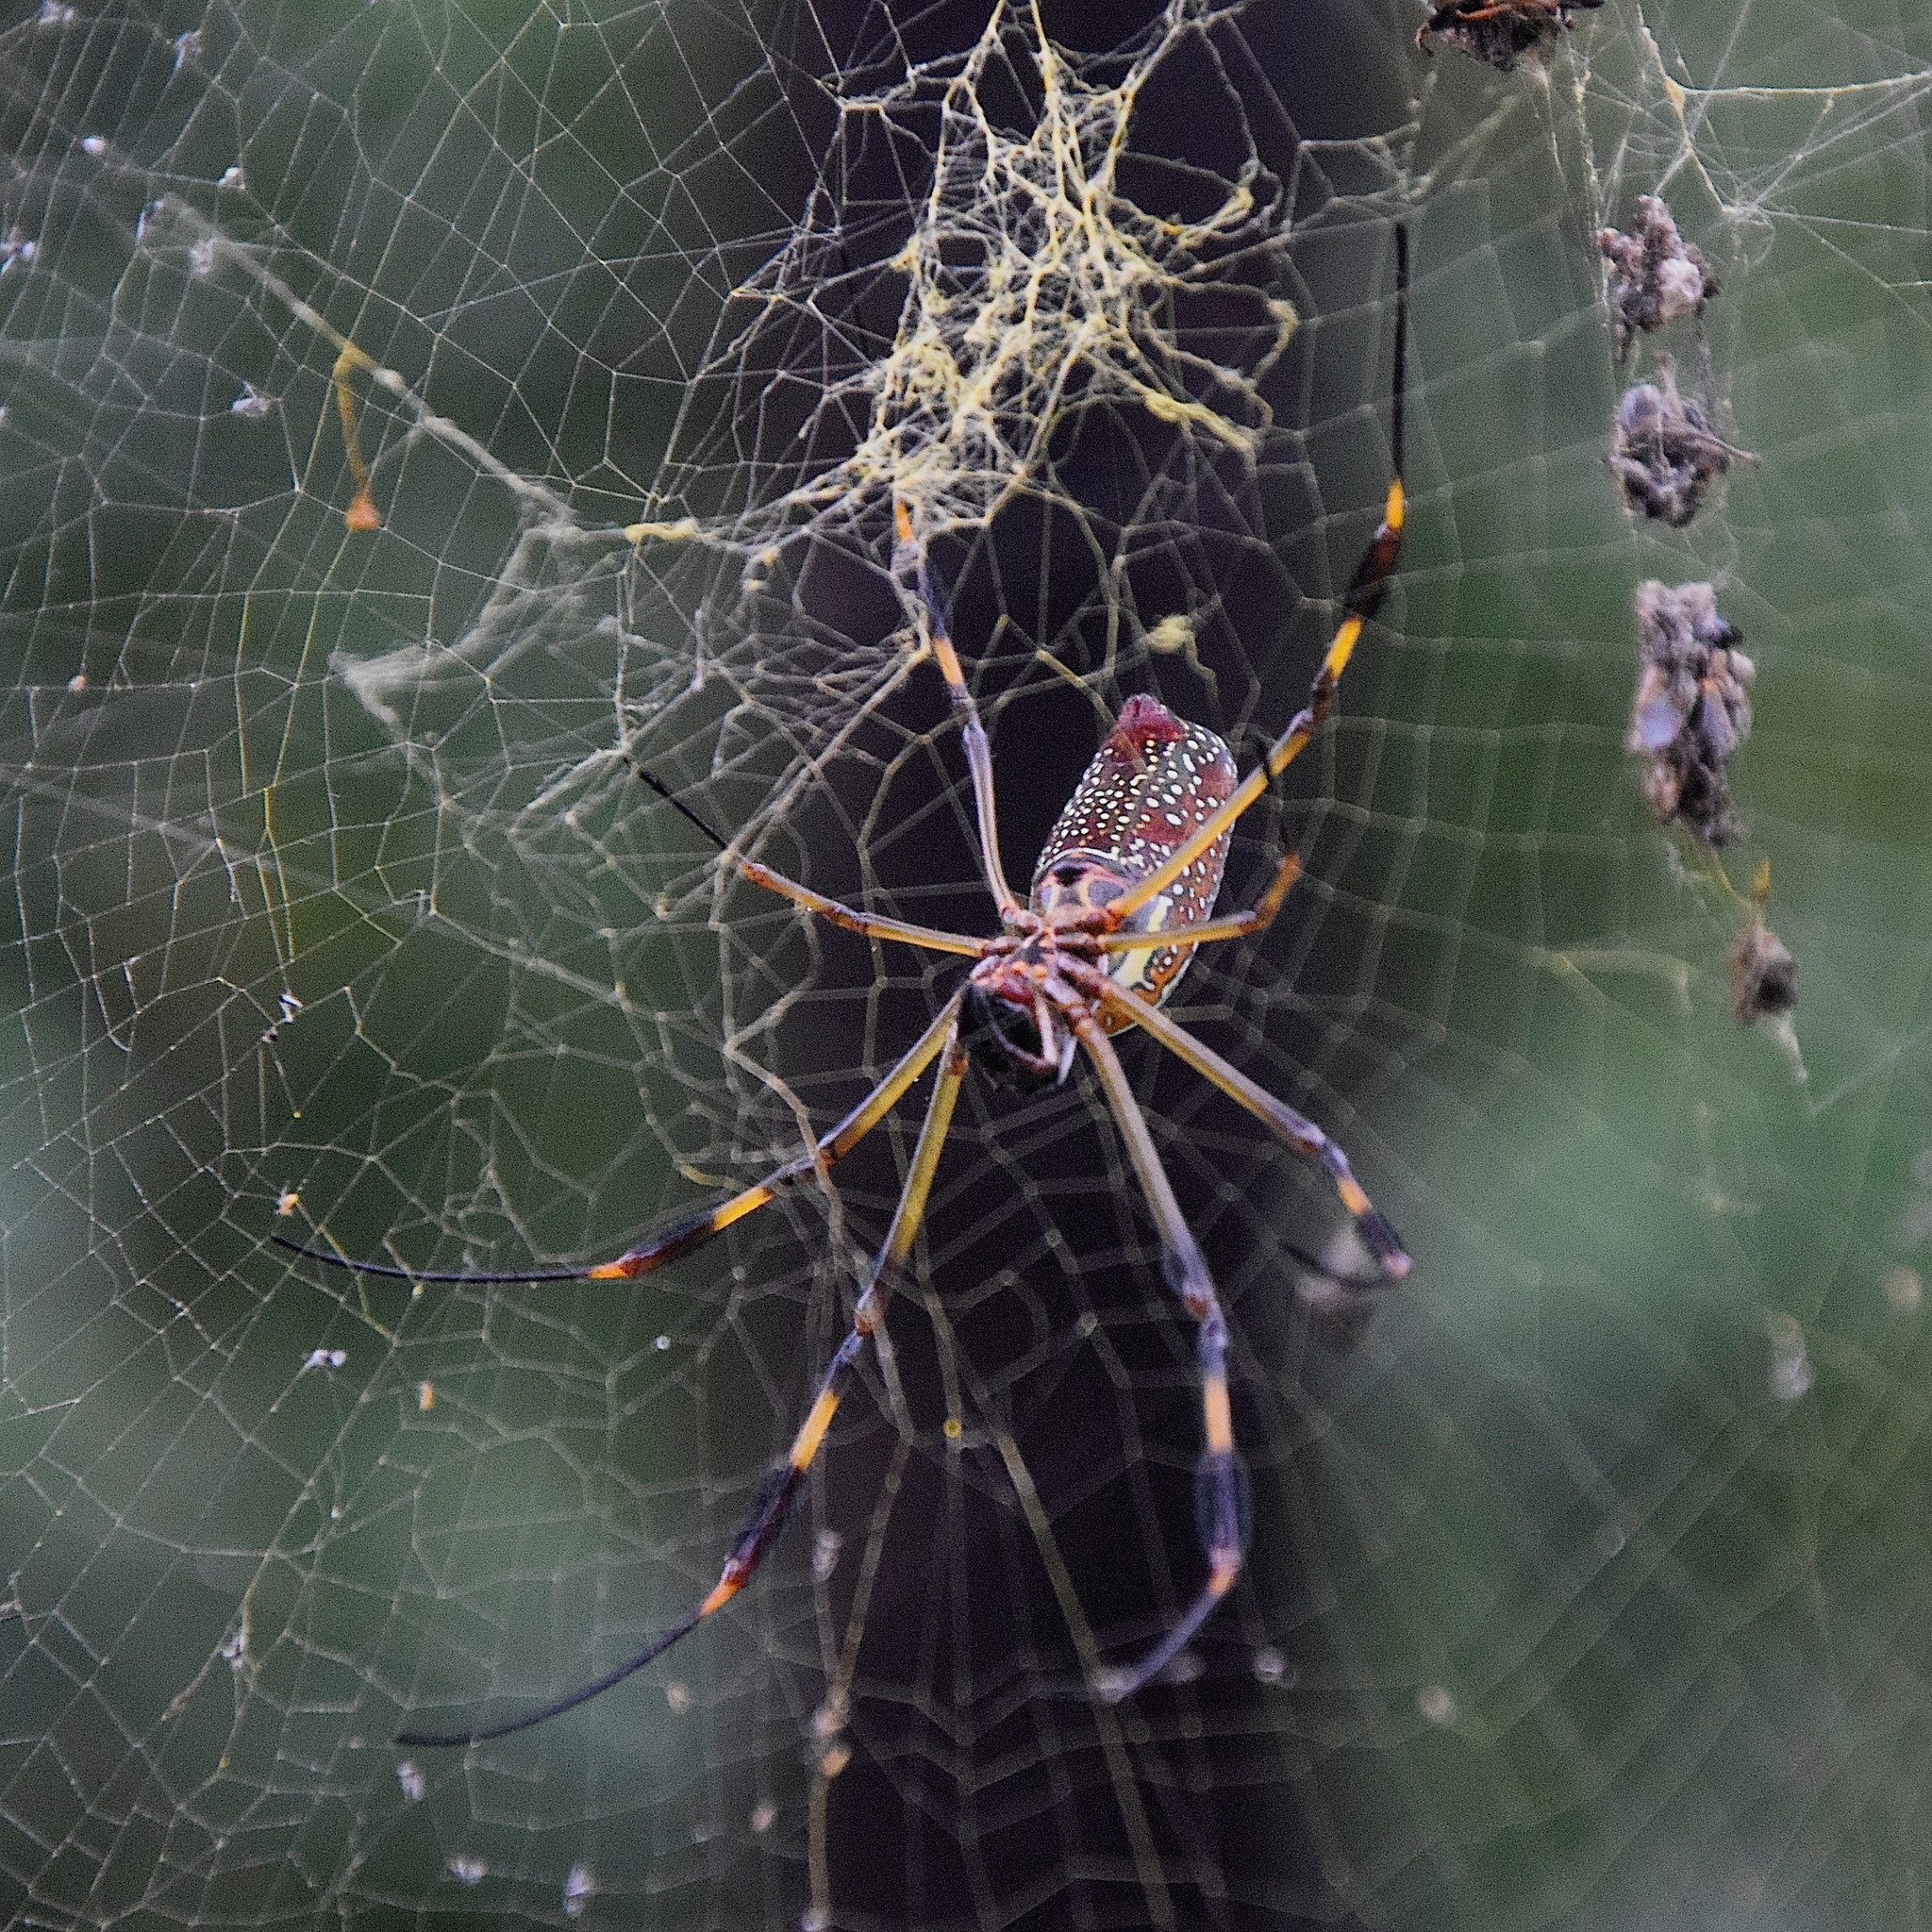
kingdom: Animalia
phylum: Arthropoda
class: Arachnida
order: Araneae
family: Araneidae
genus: Trichonephila
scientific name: Trichonephila clavipes
